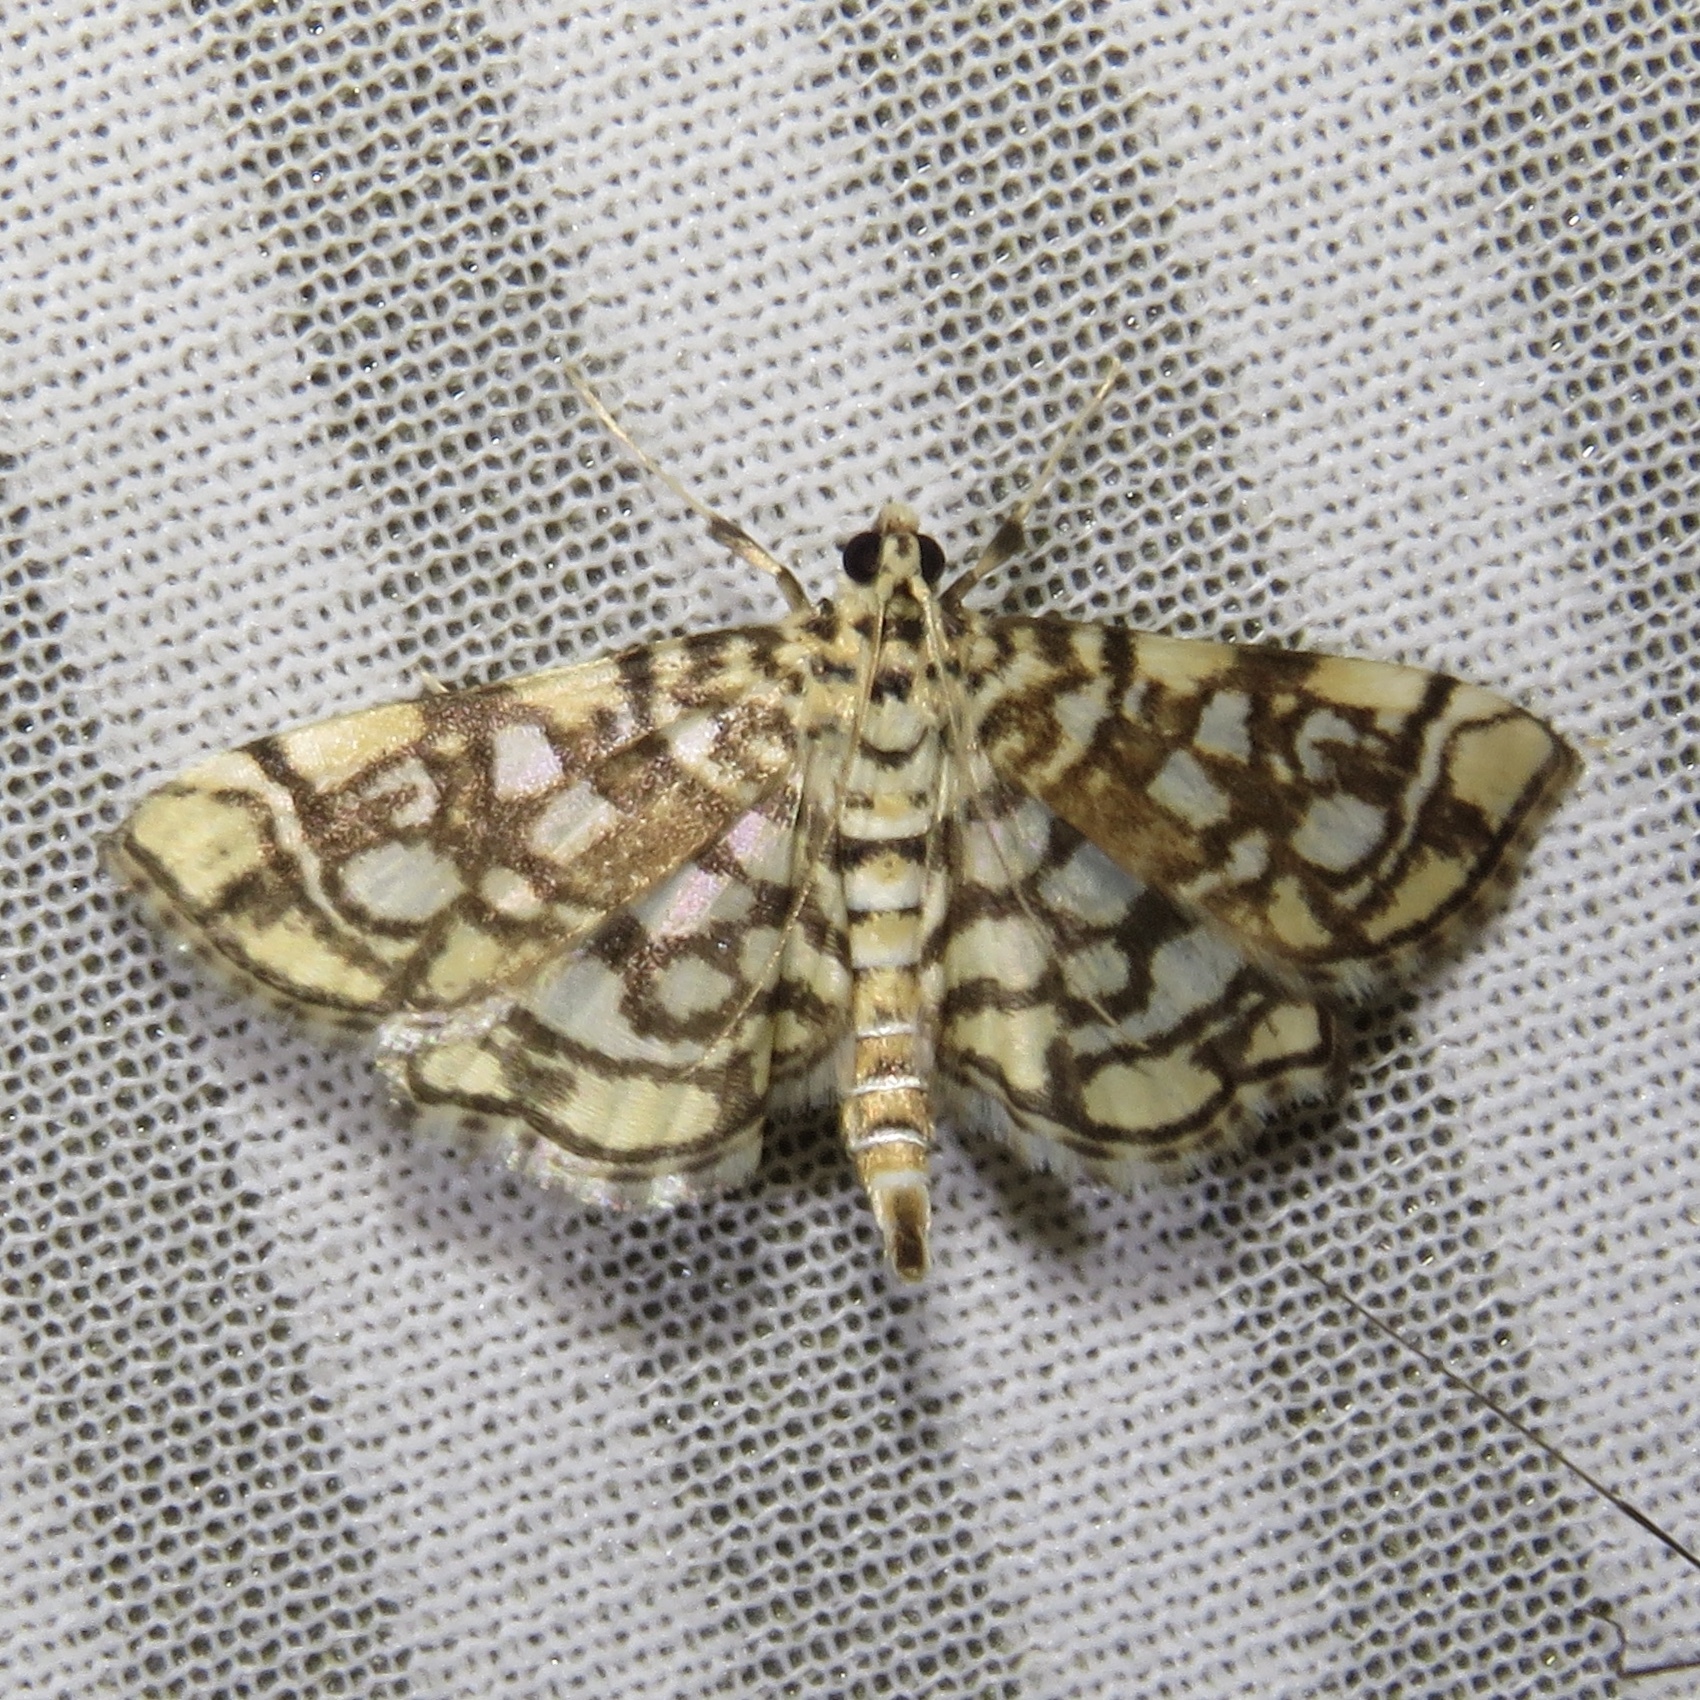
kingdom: Animalia
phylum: Arthropoda
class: Insecta
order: Lepidoptera
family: Crambidae
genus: Lygropia
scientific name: Lygropia rivulalis
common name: Bog lygropia moth
